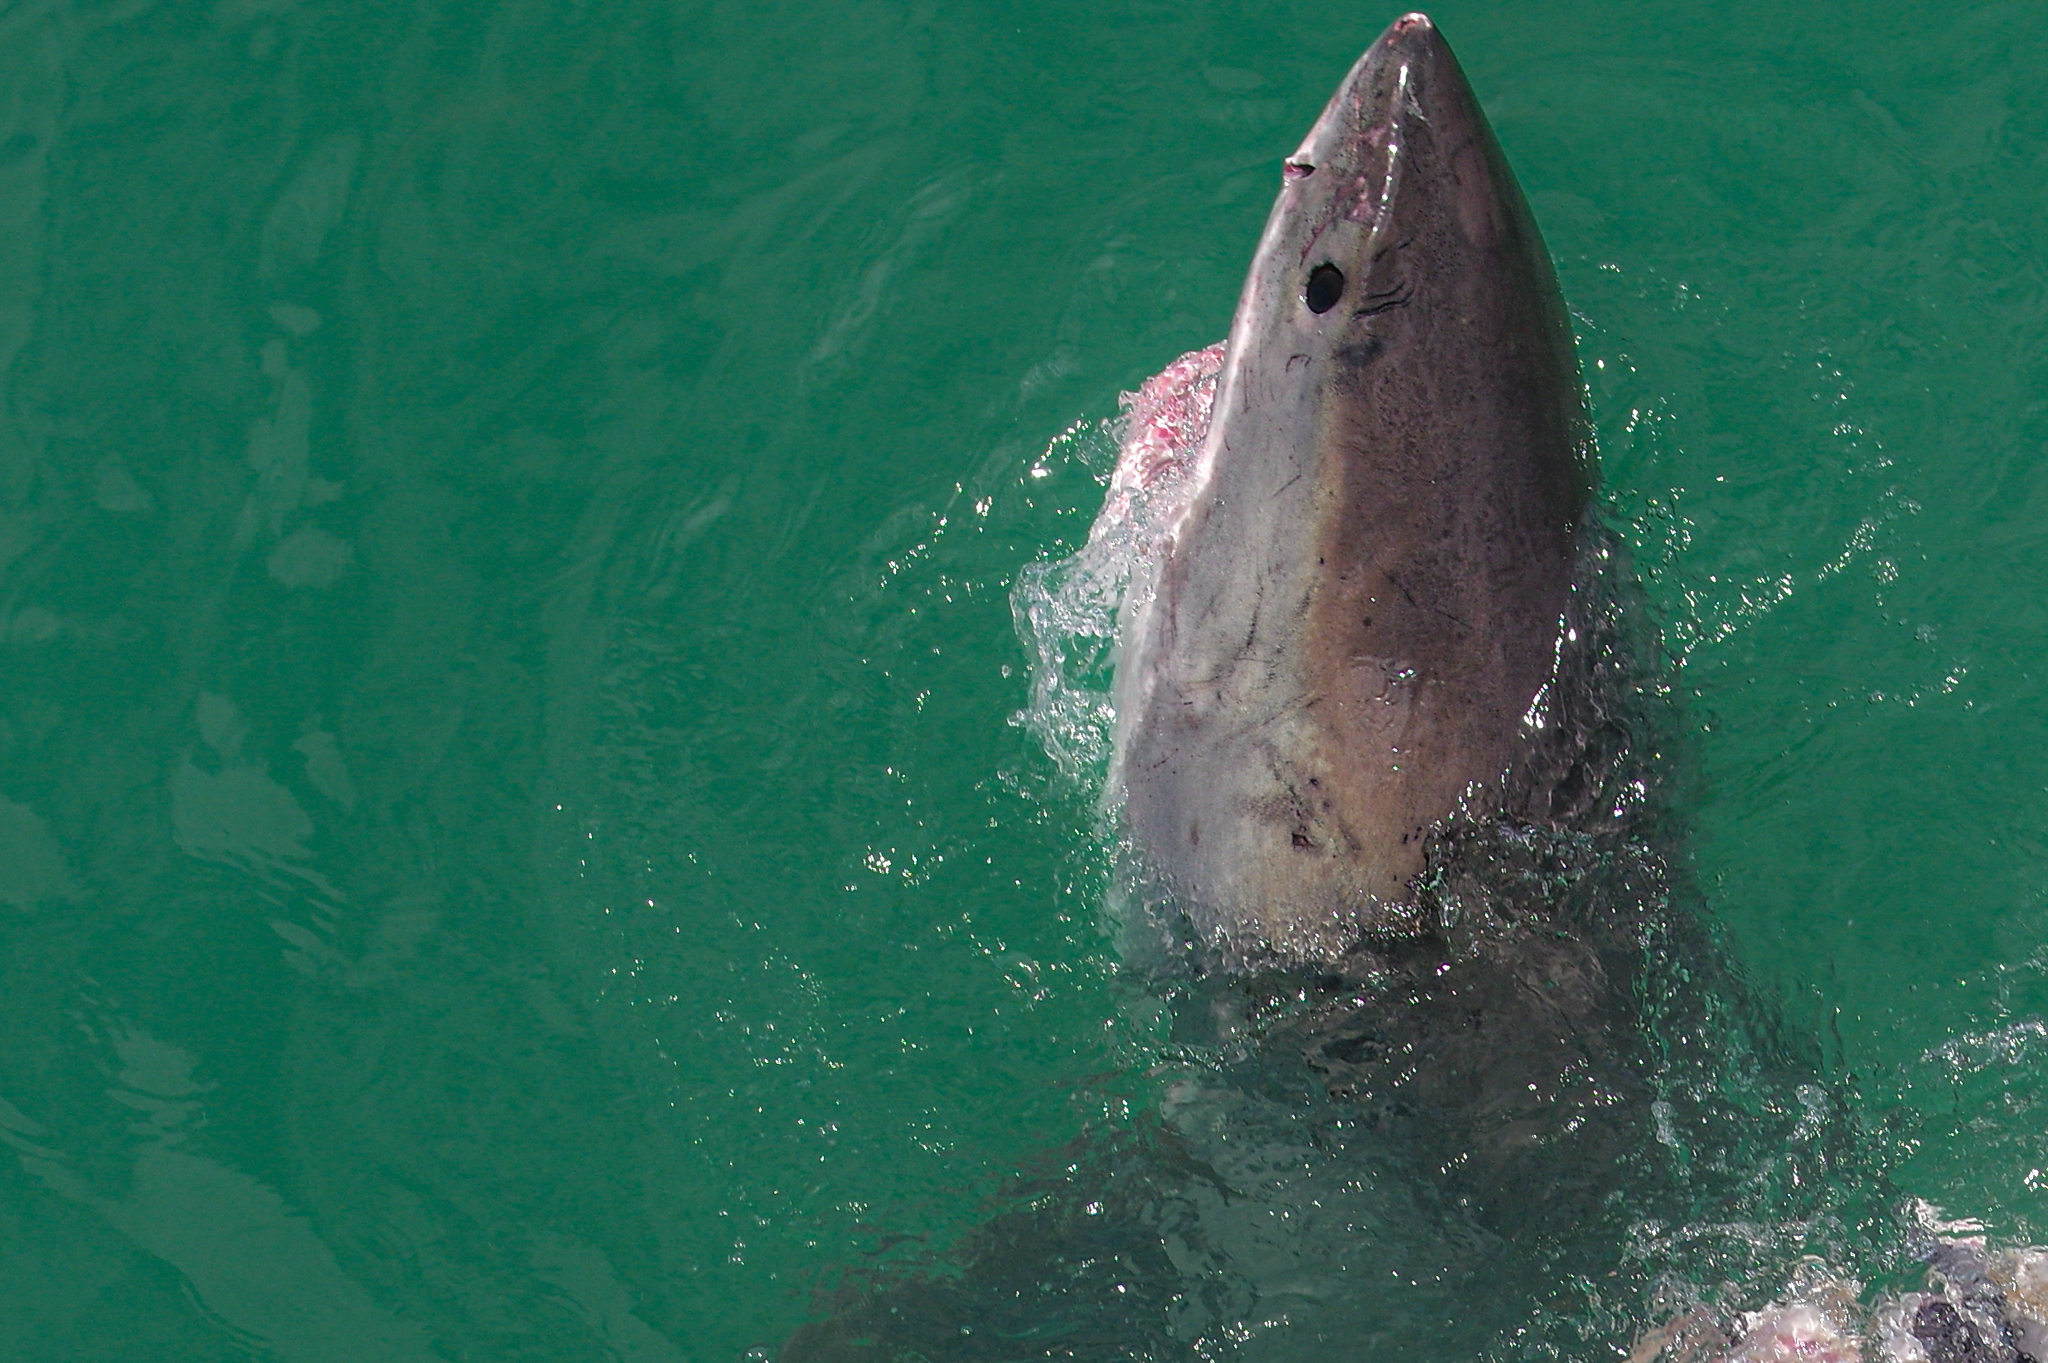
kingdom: Animalia
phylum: Chordata
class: Elasmobranchii
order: Lamniformes
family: Lamnidae
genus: Carcharodon
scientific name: Carcharodon carcharias
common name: Great white shark
